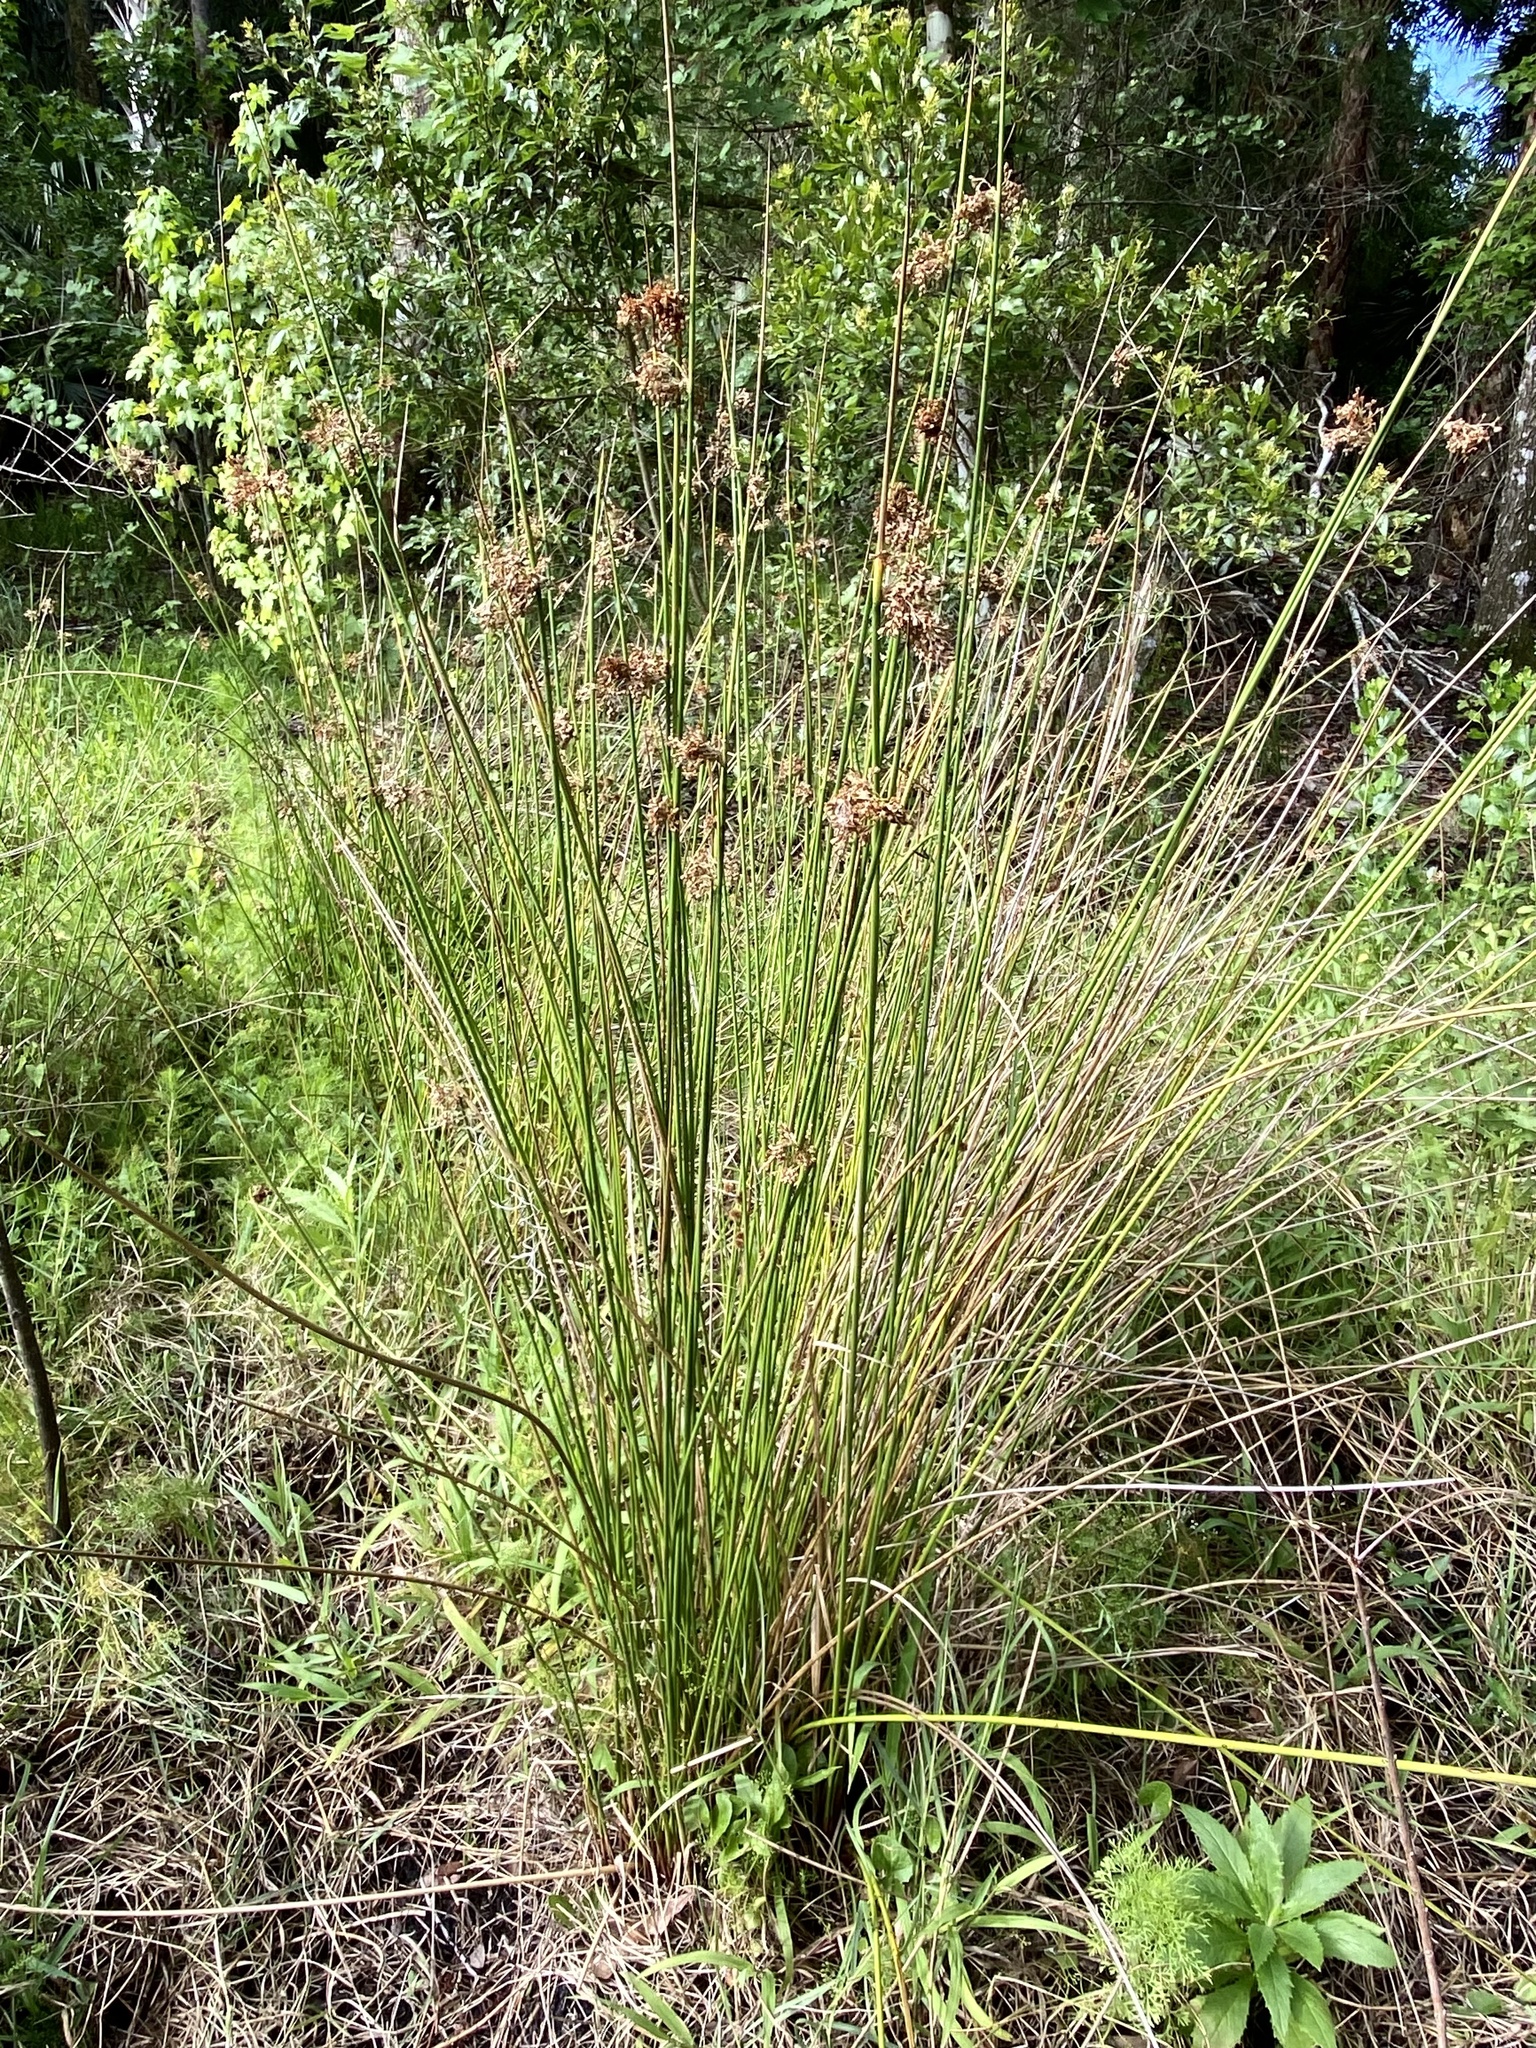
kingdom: Plantae
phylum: Tracheophyta
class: Liliopsida
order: Poales
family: Juncaceae
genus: Juncus
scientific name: Juncus effusus
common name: Soft rush
